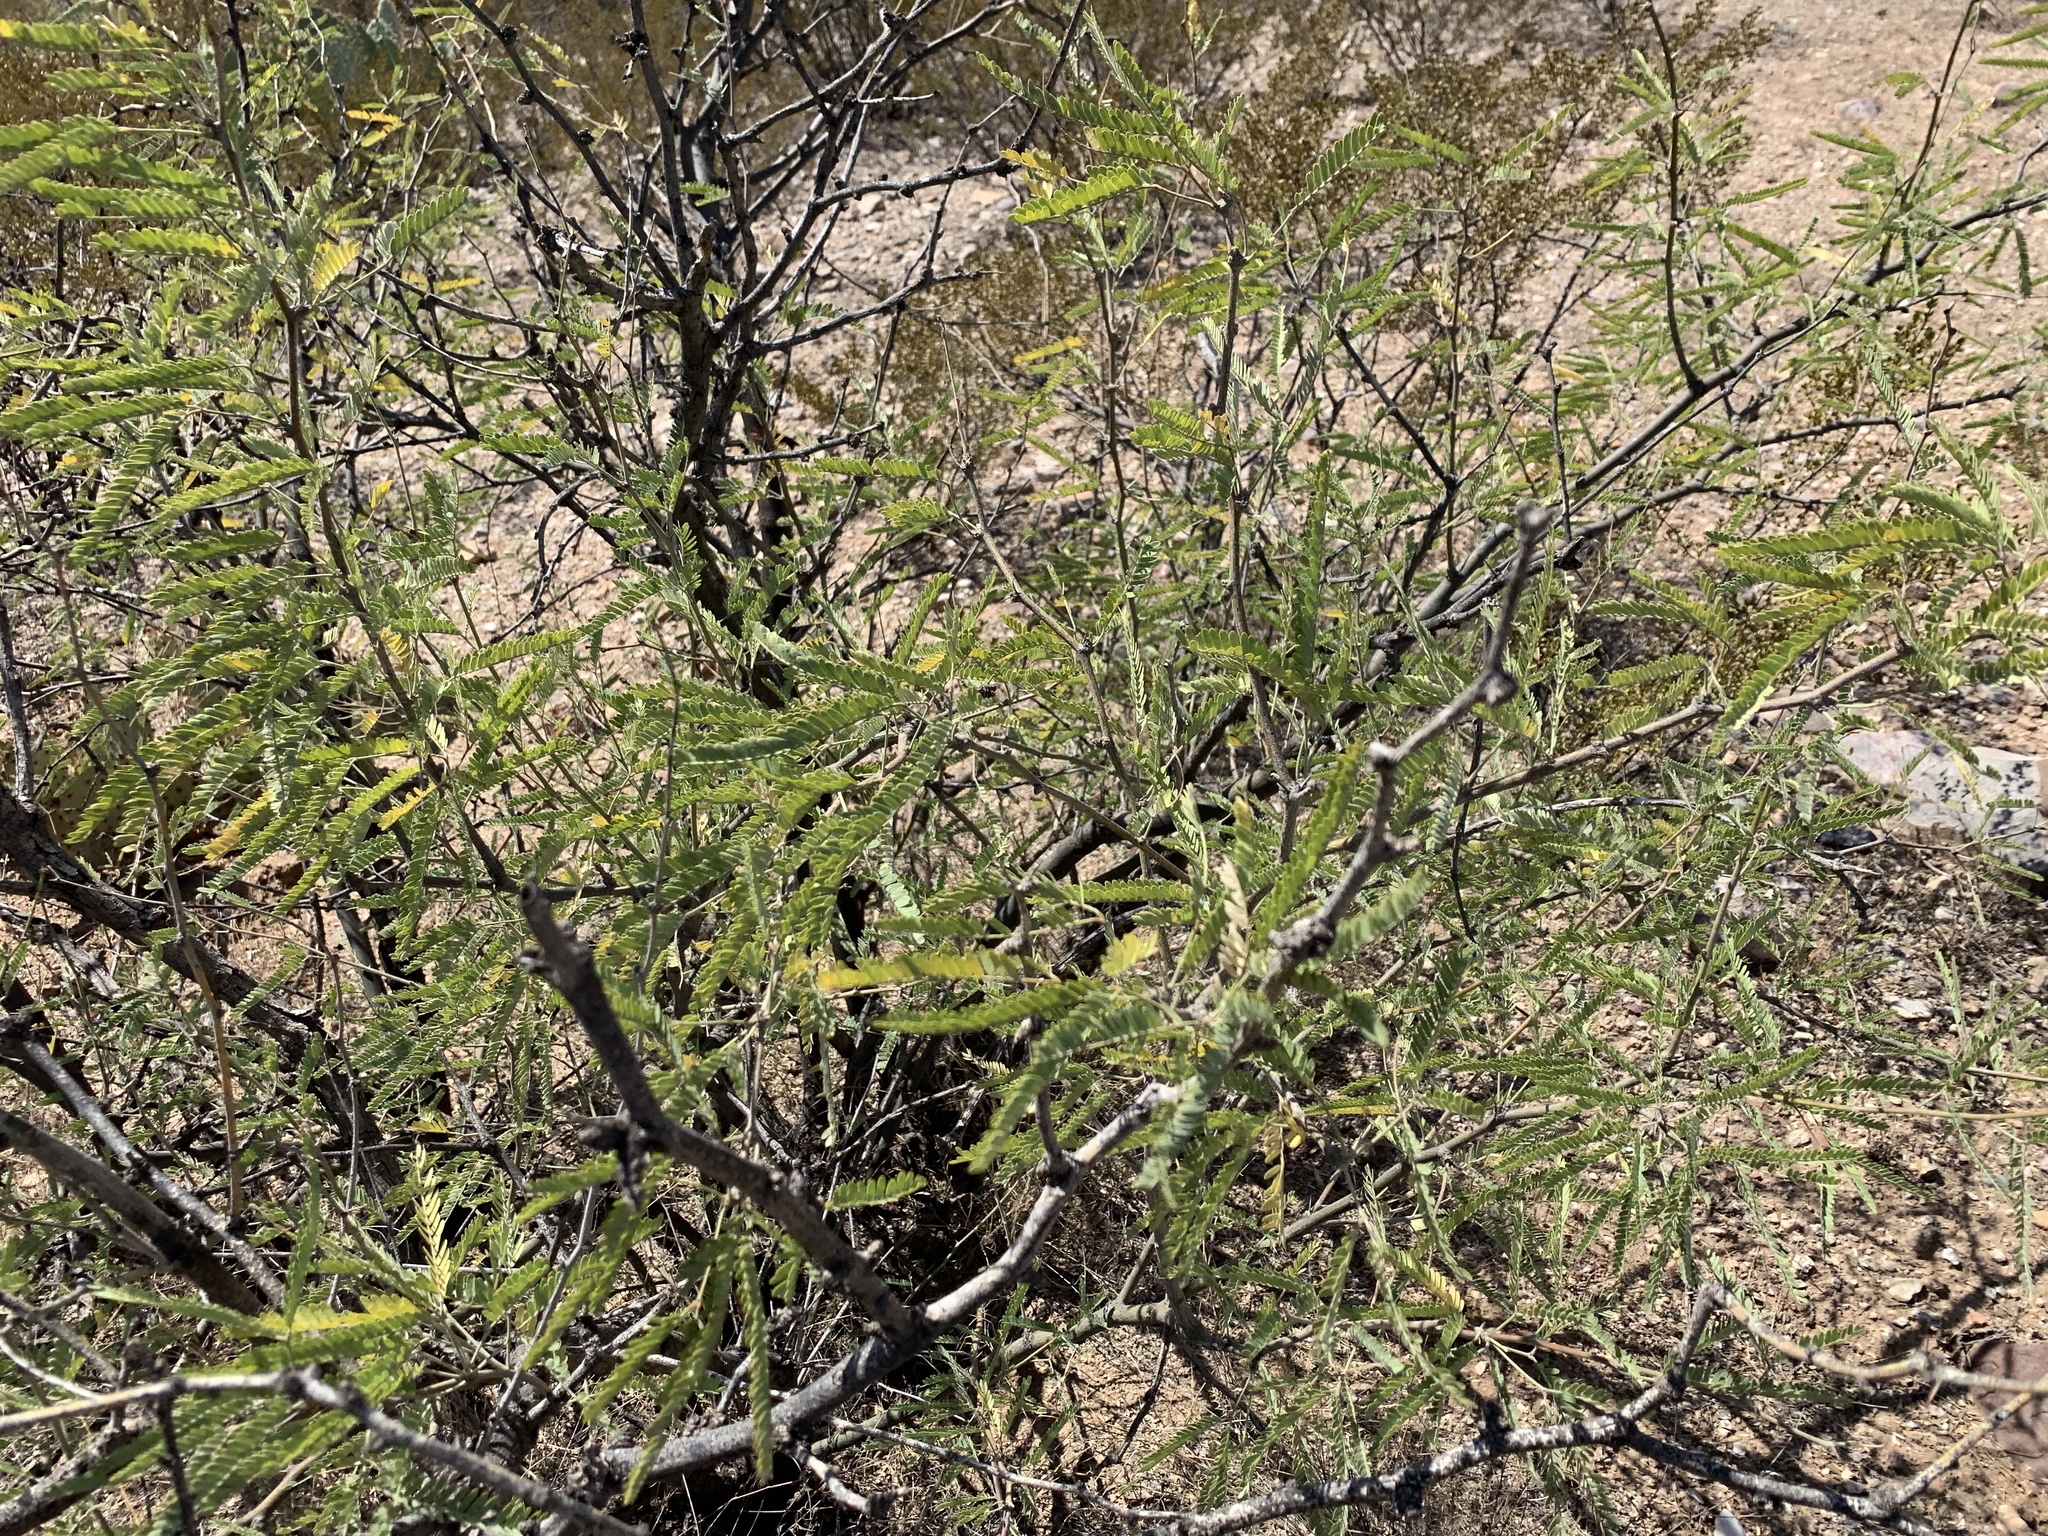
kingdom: Plantae
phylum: Tracheophyta
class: Magnoliopsida
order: Fabales
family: Fabaceae
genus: Prosopis
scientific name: Prosopis velutina
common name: Velvet mesquite
